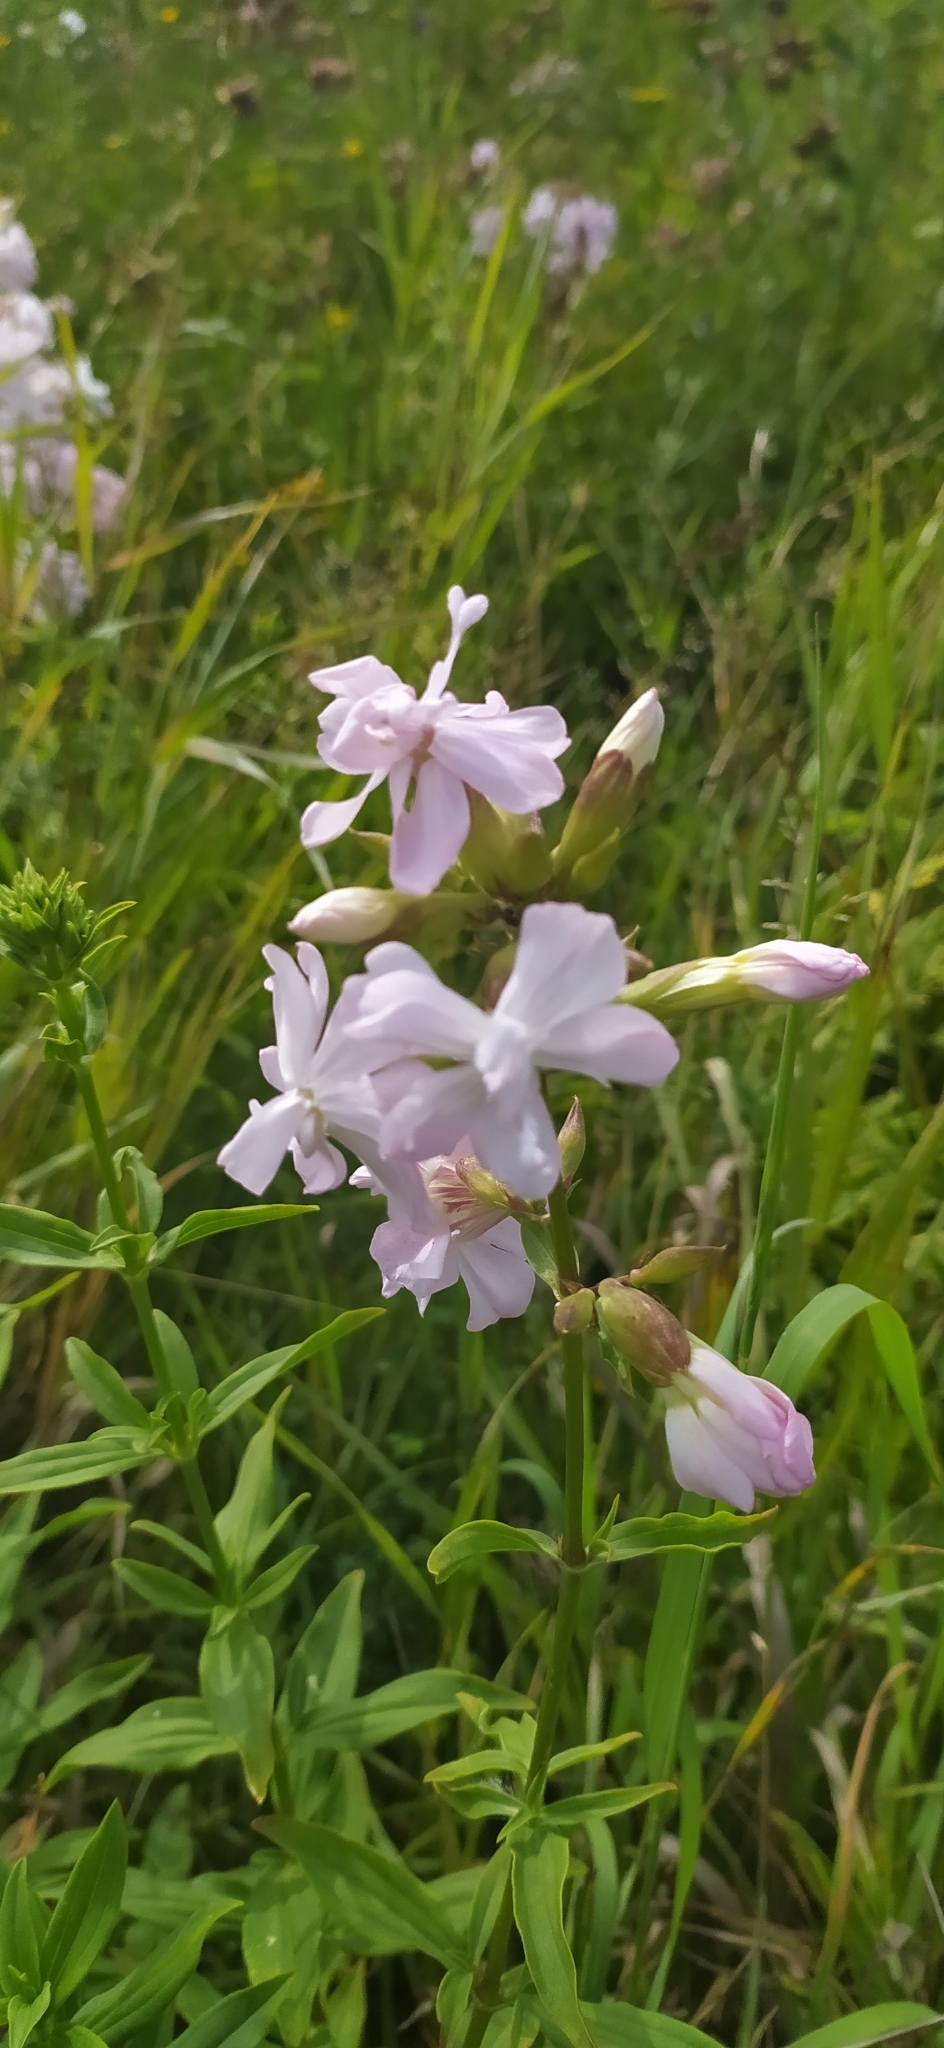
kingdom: Plantae
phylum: Tracheophyta
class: Magnoliopsida
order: Caryophyllales
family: Caryophyllaceae
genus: Saponaria
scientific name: Saponaria officinalis
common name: Soapwort
